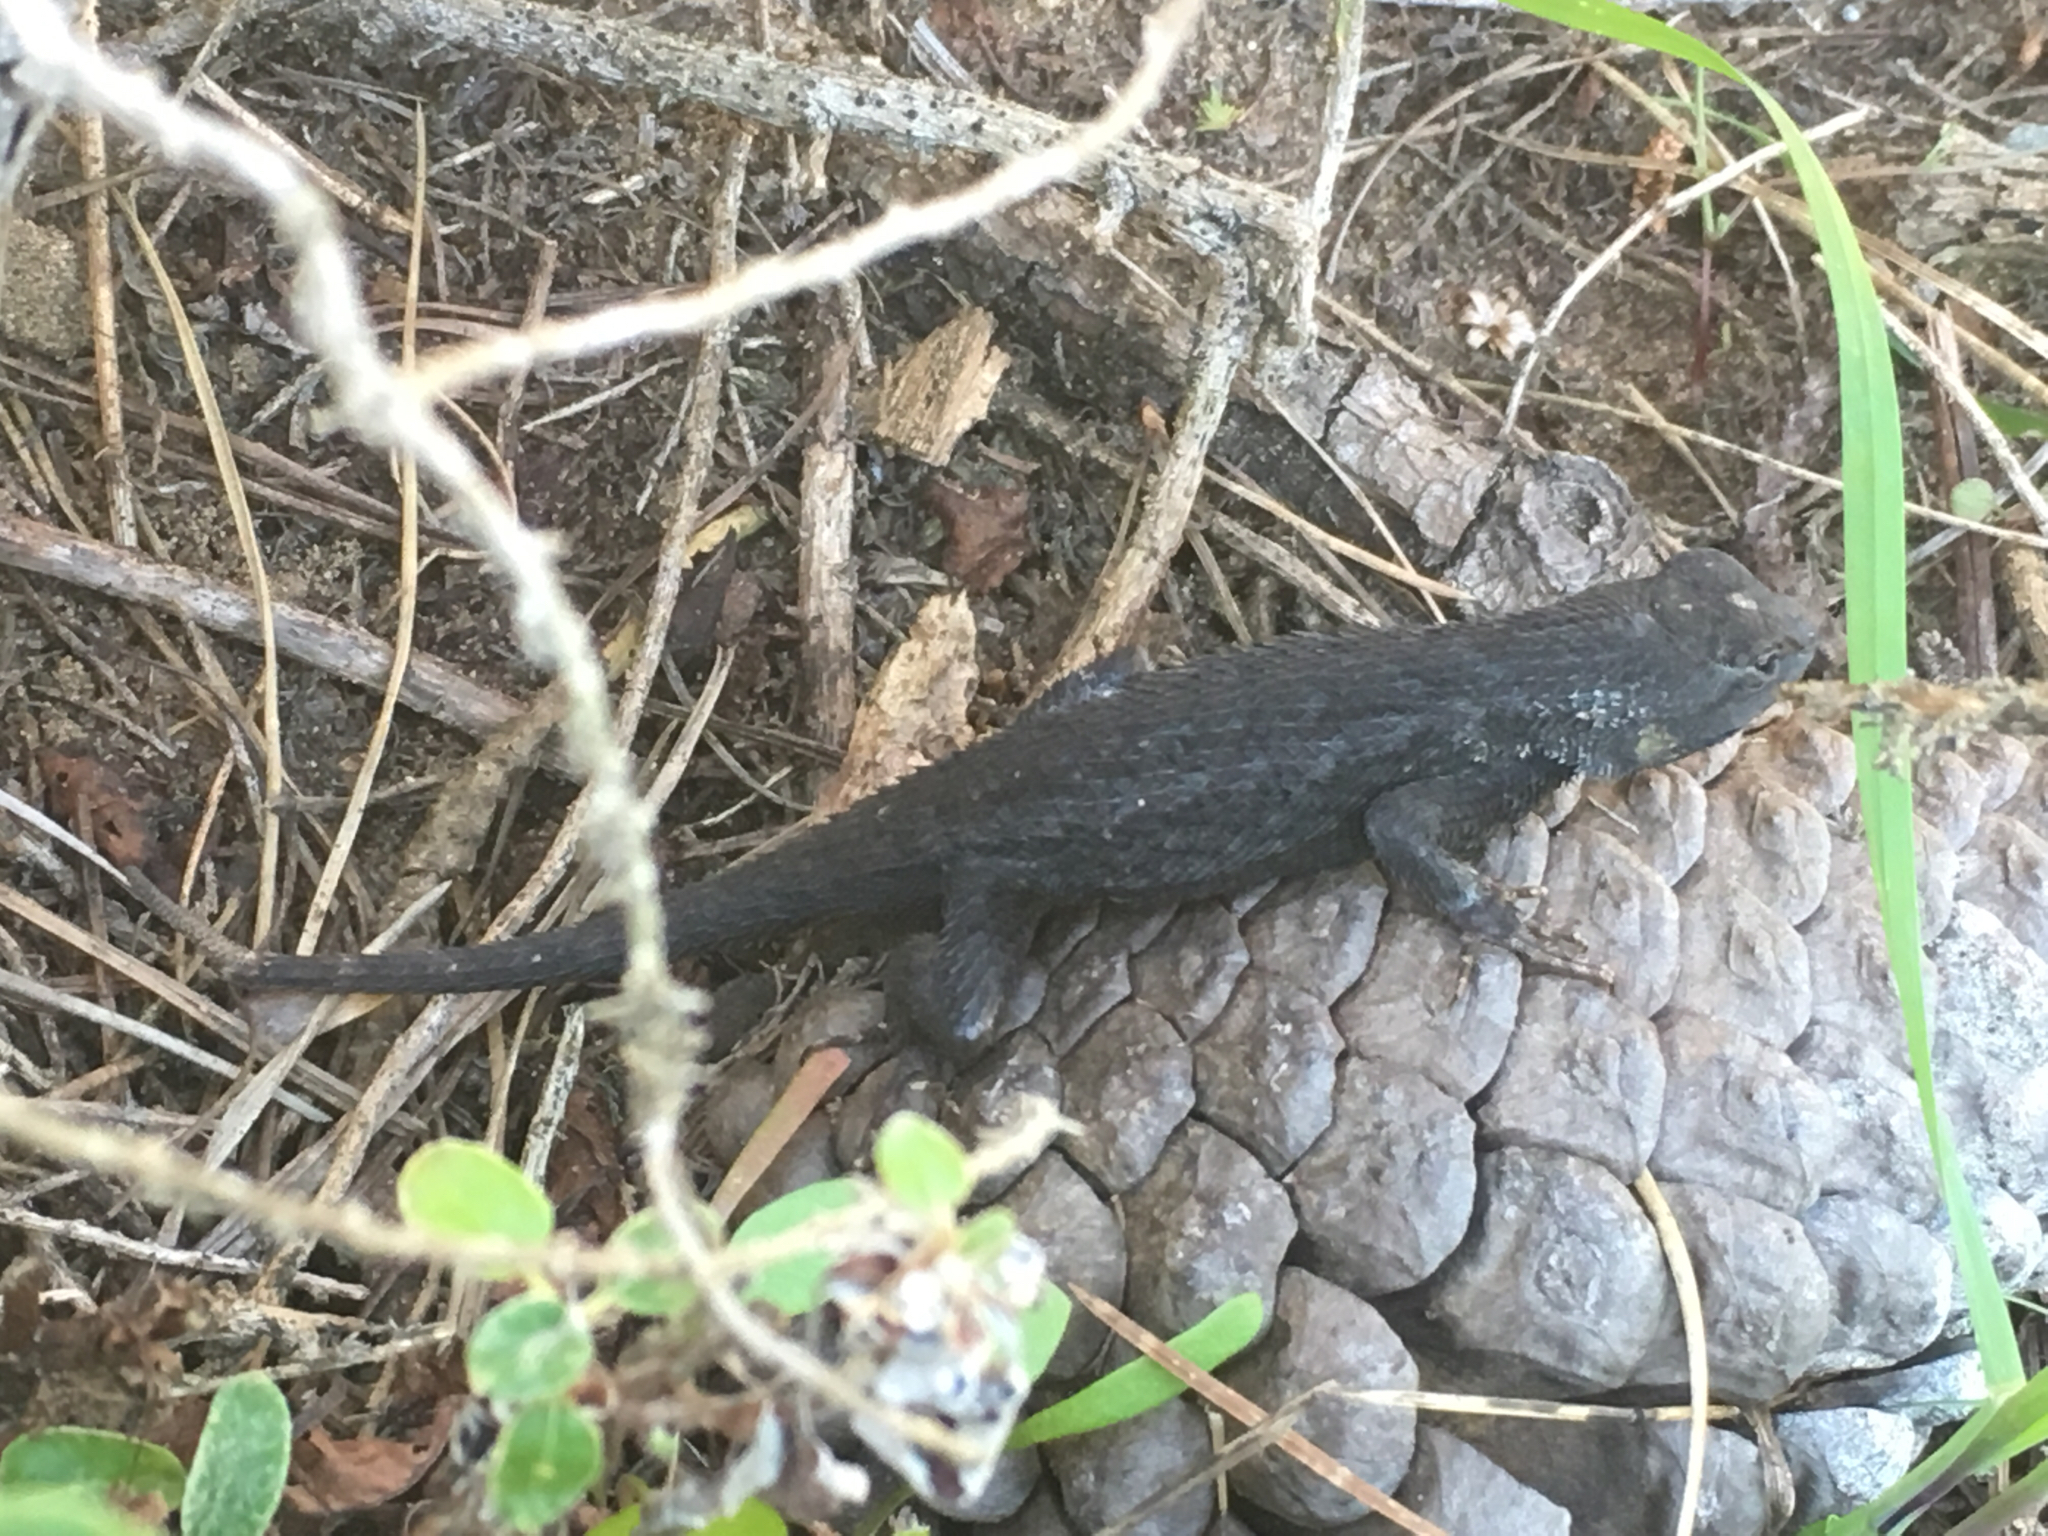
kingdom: Animalia
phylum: Chordata
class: Squamata
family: Phrynosomatidae
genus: Sceloporus
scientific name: Sceloporus occidentalis
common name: Western fence lizard
